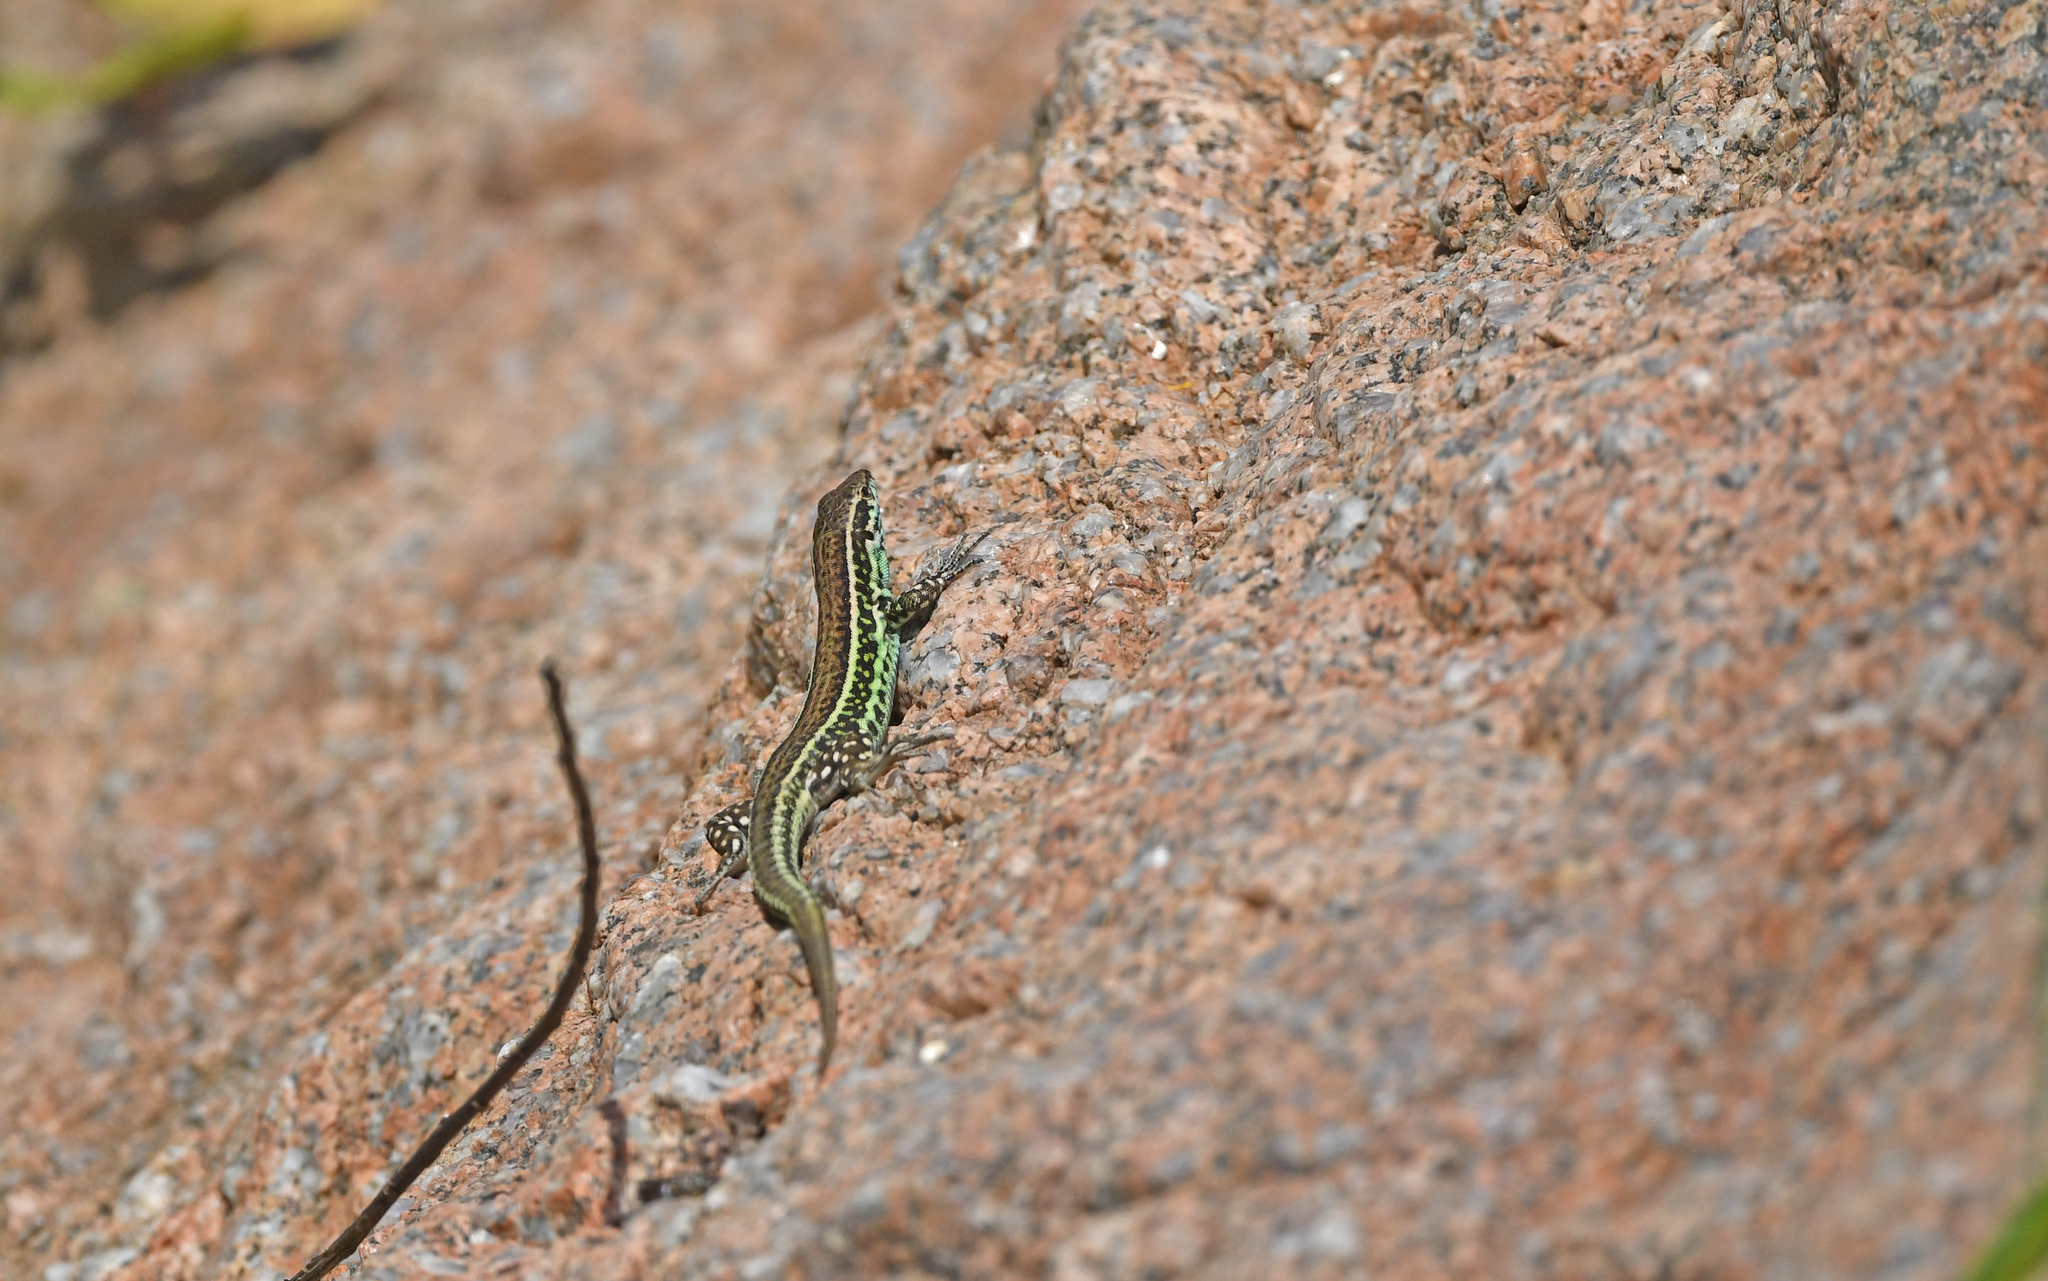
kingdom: Animalia
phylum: Chordata
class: Squamata
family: Lacertidae
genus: Podarcis
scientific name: Podarcis tiliguerta
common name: Tyrrhenian wall lizard
